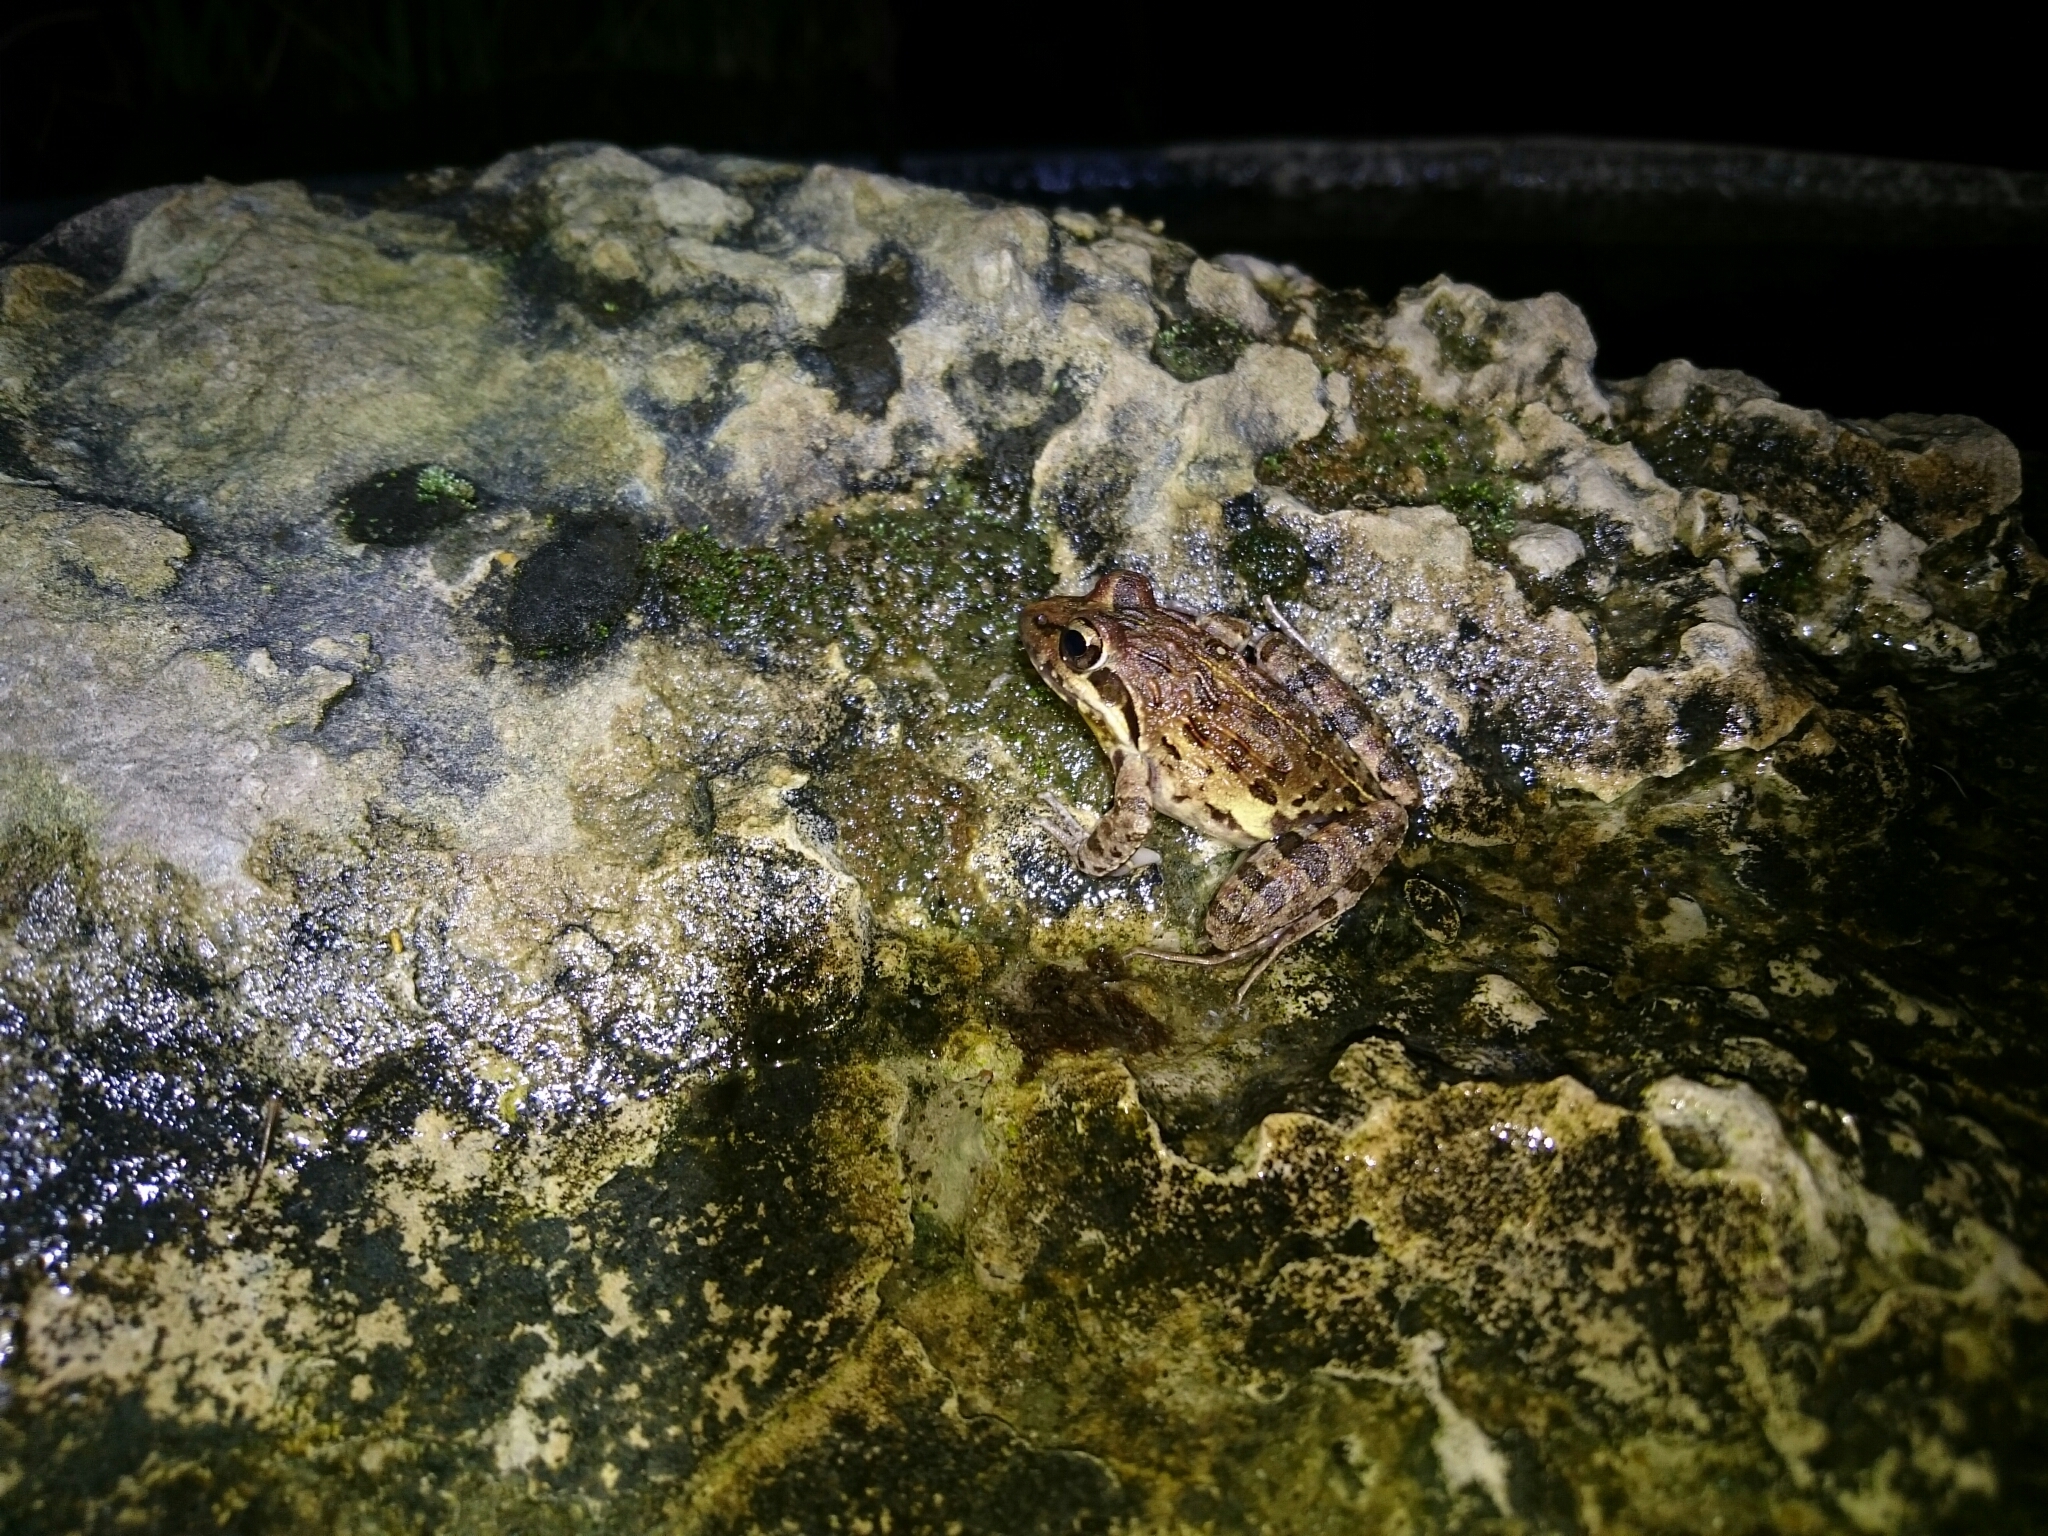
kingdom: Animalia
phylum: Chordata
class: Amphibia
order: Anura
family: Pyxicephalidae
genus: Strongylopus
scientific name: Strongylopus grayii
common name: Gray's stream frog
